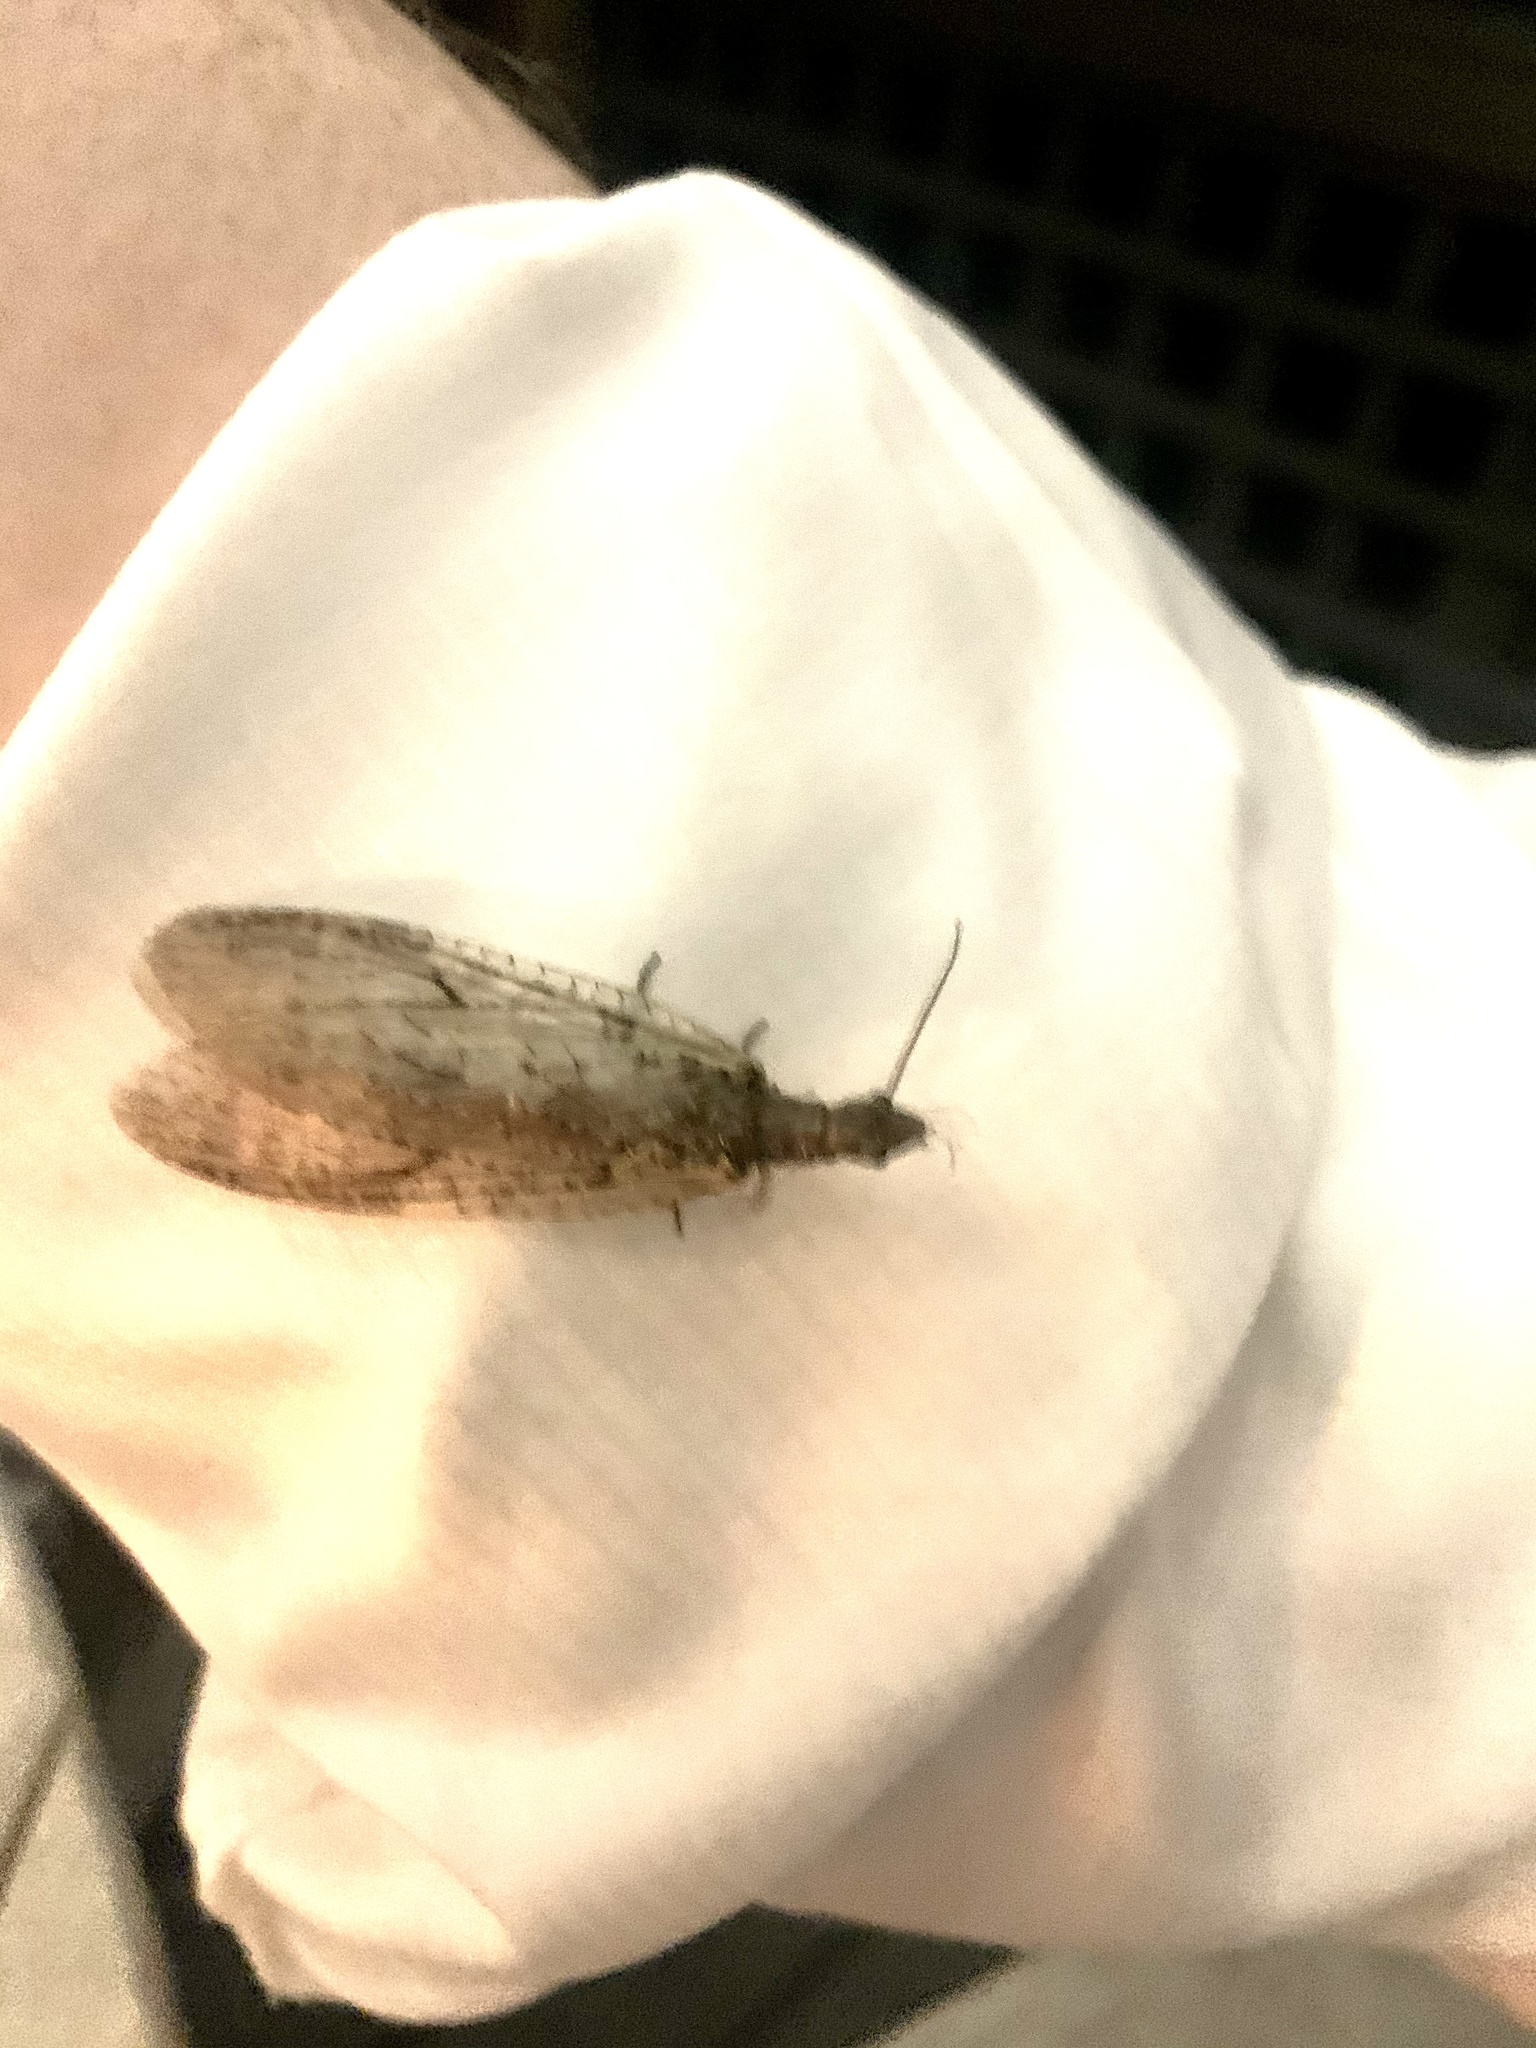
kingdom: Animalia
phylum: Arthropoda
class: Insecta
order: Megaloptera
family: Corydalidae
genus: Chauliodes
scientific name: Chauliodes rastricornis
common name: Spring fishfly
